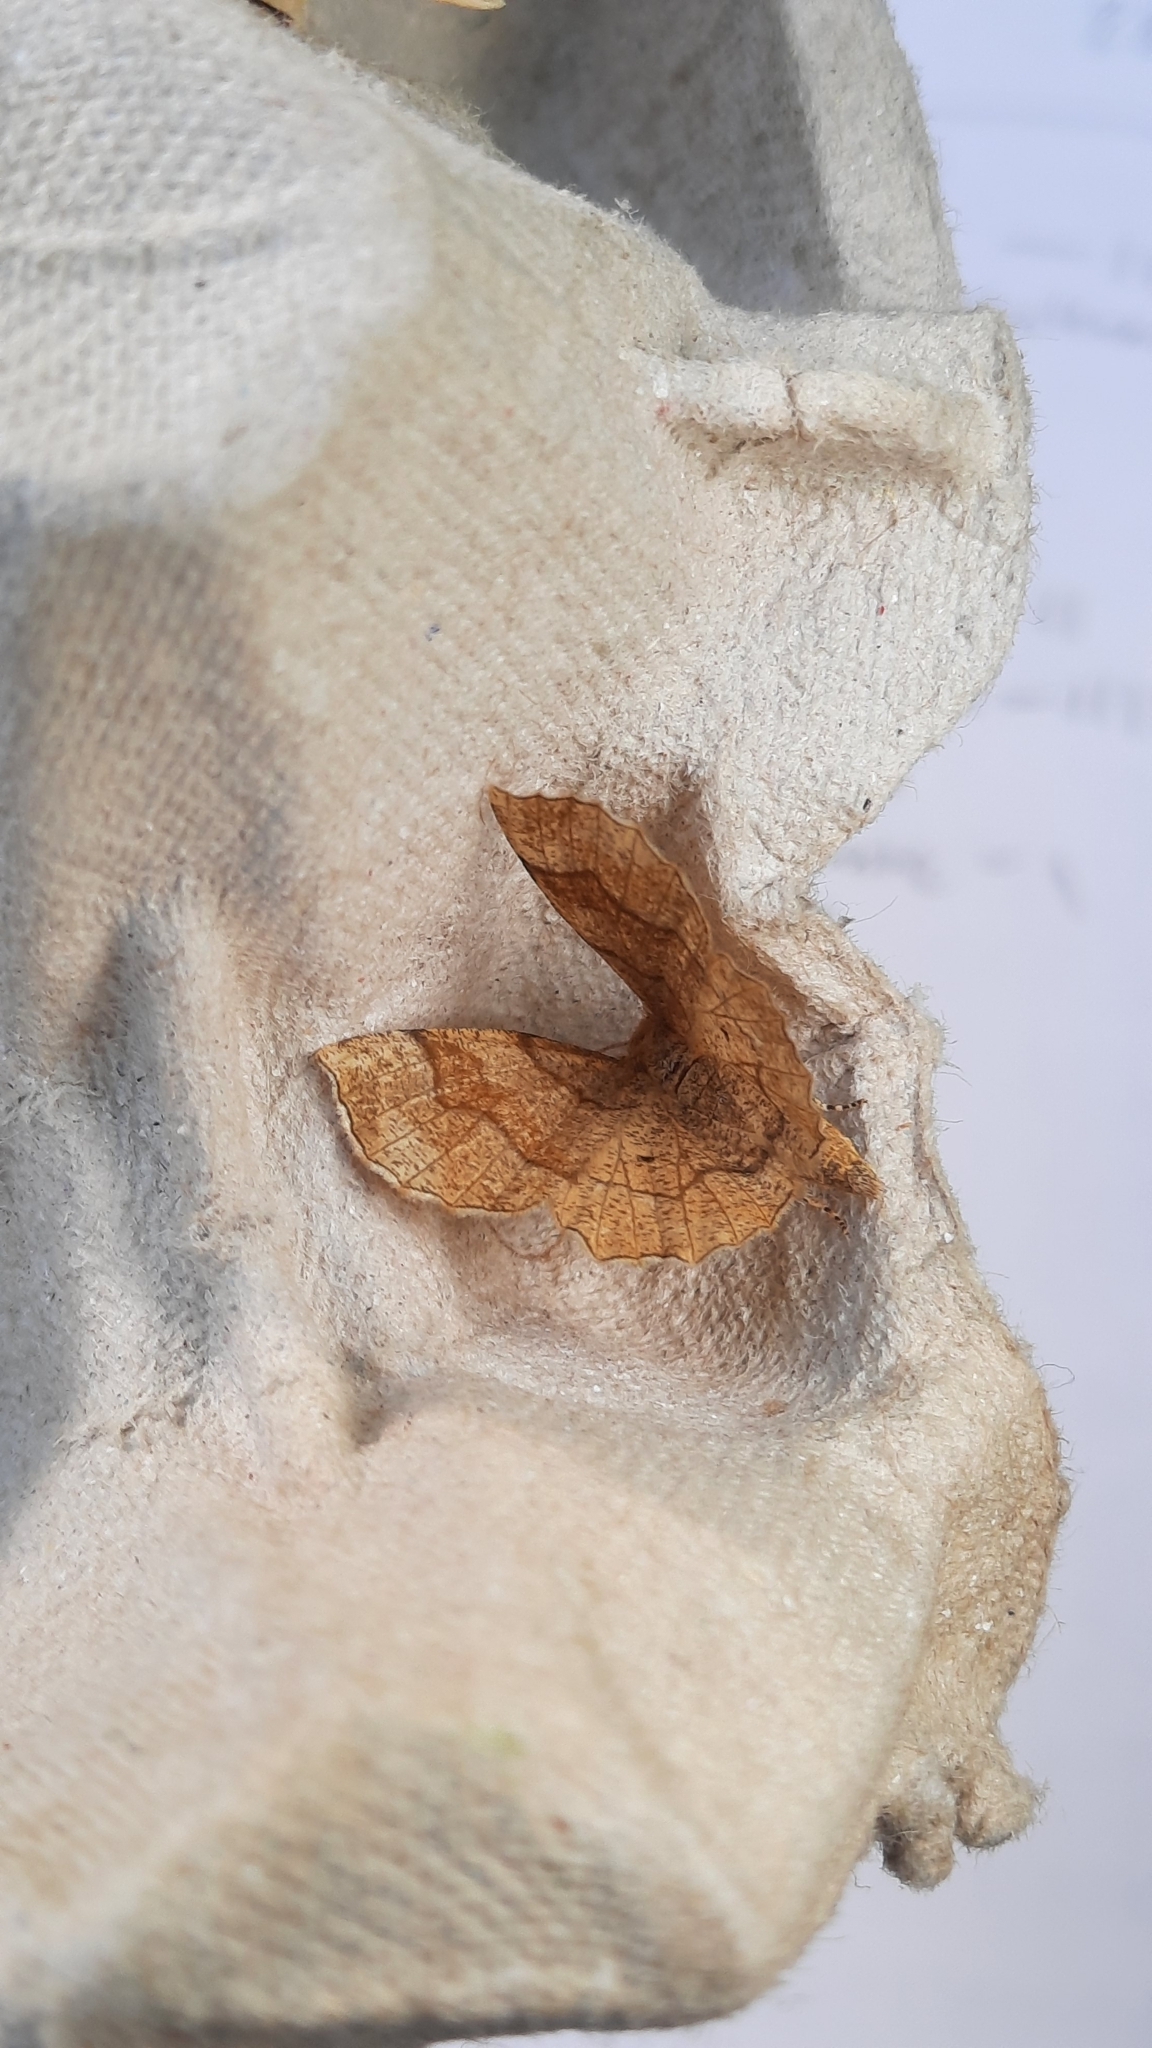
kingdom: Animalia
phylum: Arthropoda
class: Insecta
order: Lepidoptera
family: Geometridae
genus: Cepphis
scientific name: Cepphis advenaria
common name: Little thorn
